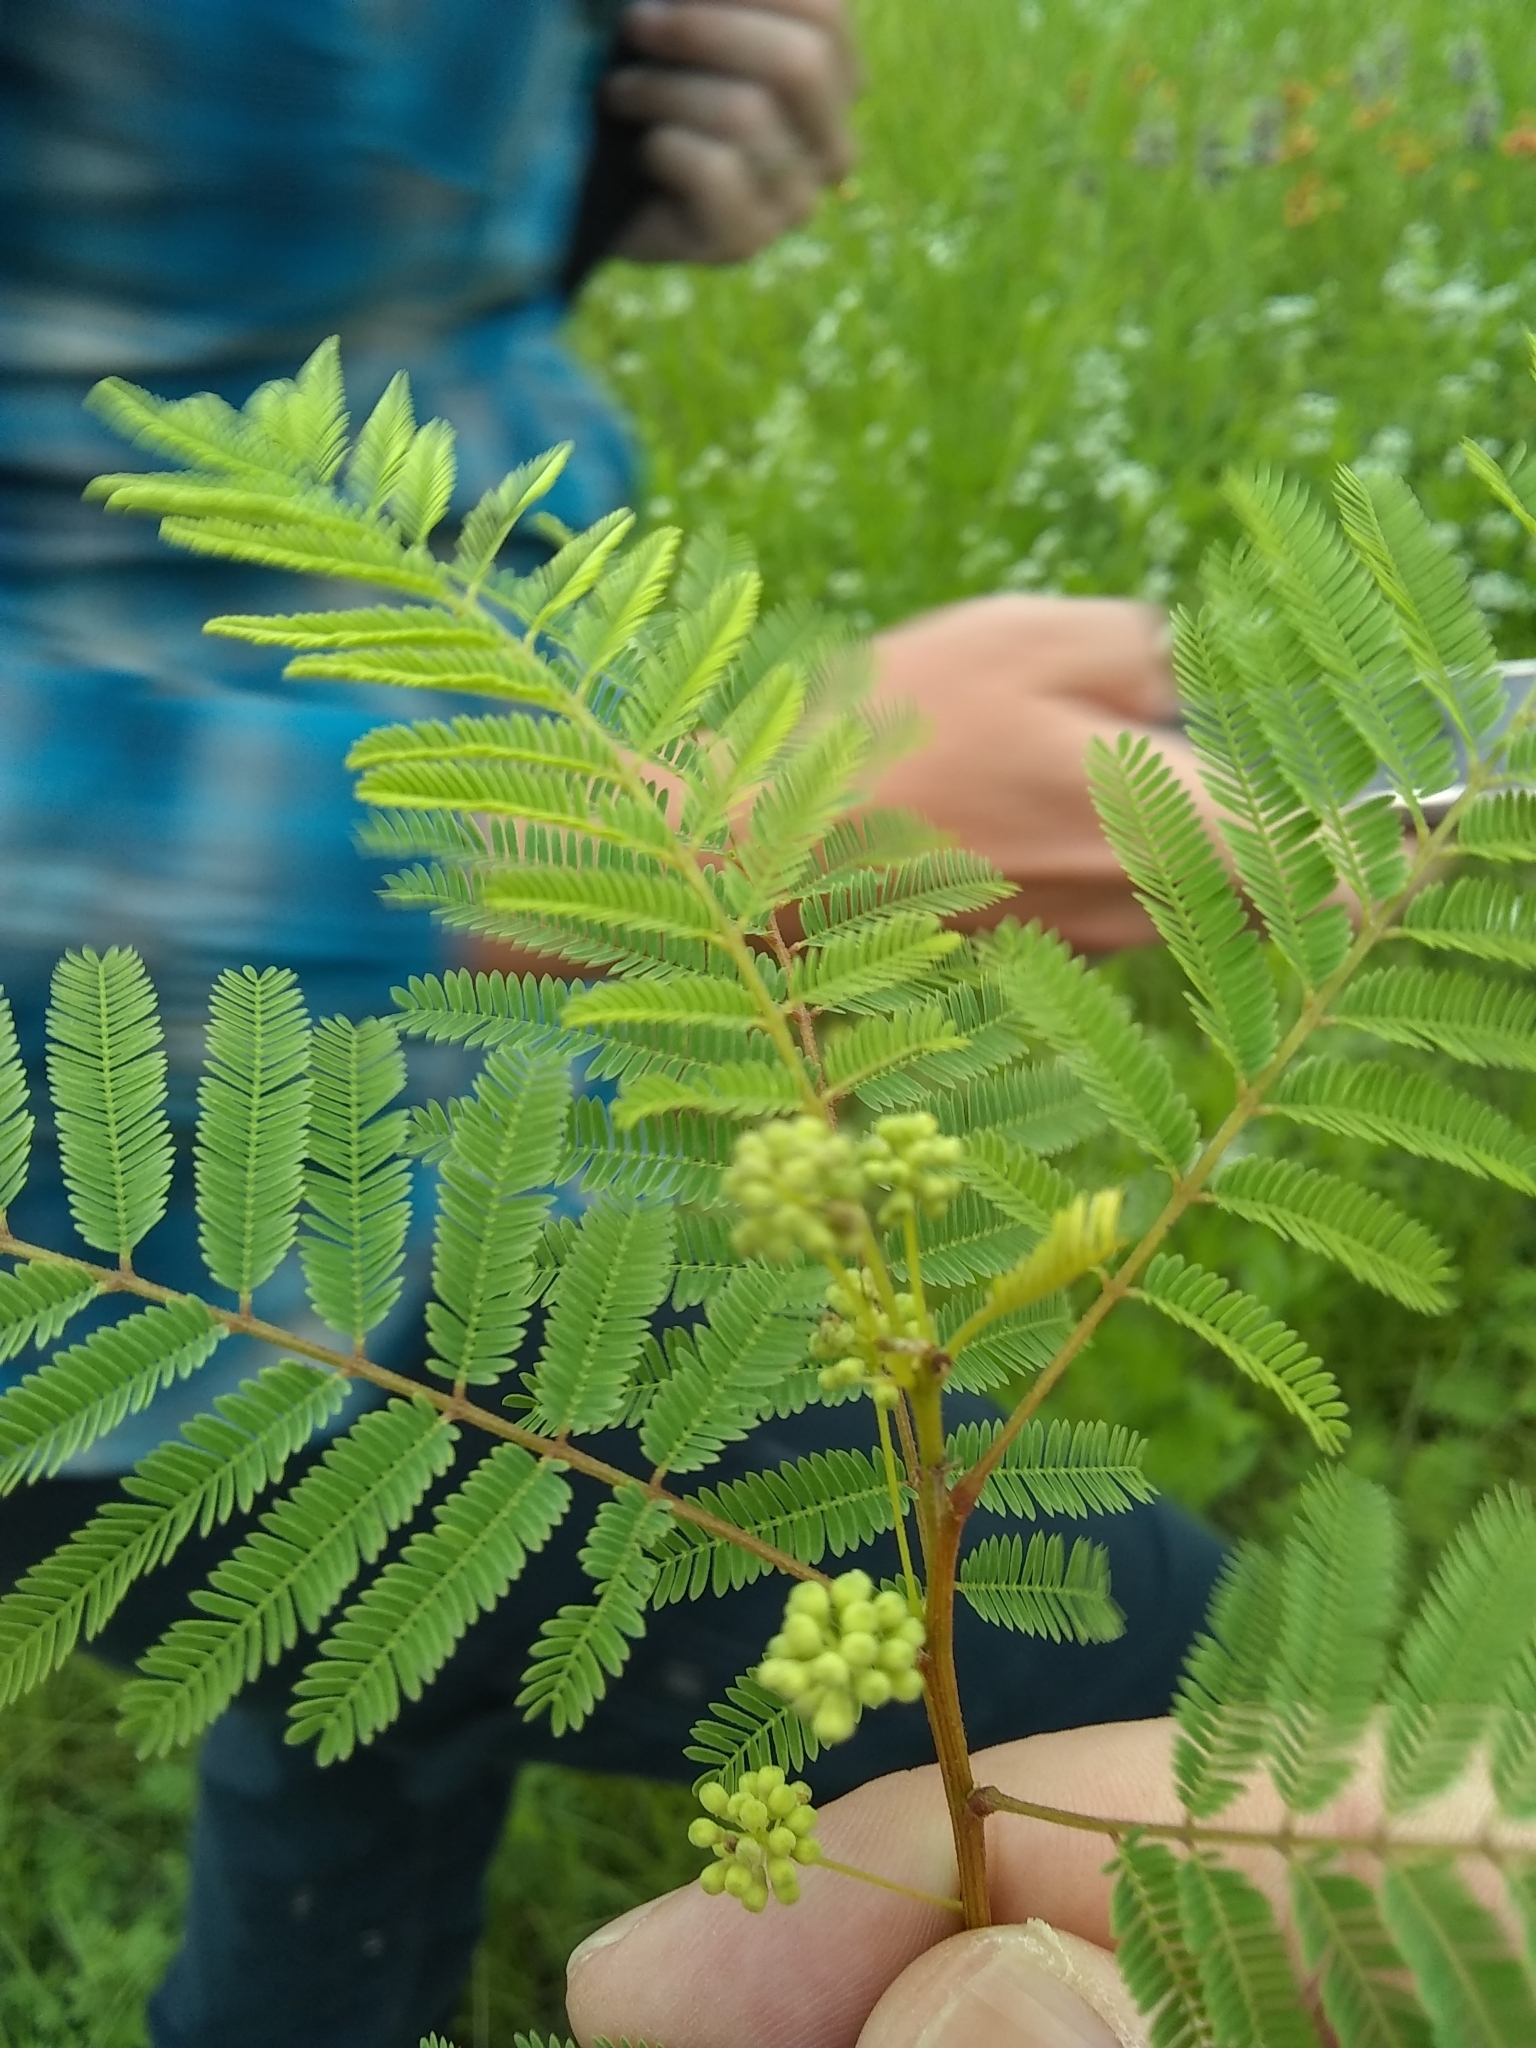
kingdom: Plantae
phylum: Tracheophyta
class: Magnoliopsida
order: Fabales
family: Fabaceae
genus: Acaciella
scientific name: Acaciella angustissima
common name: Prairie acacia
